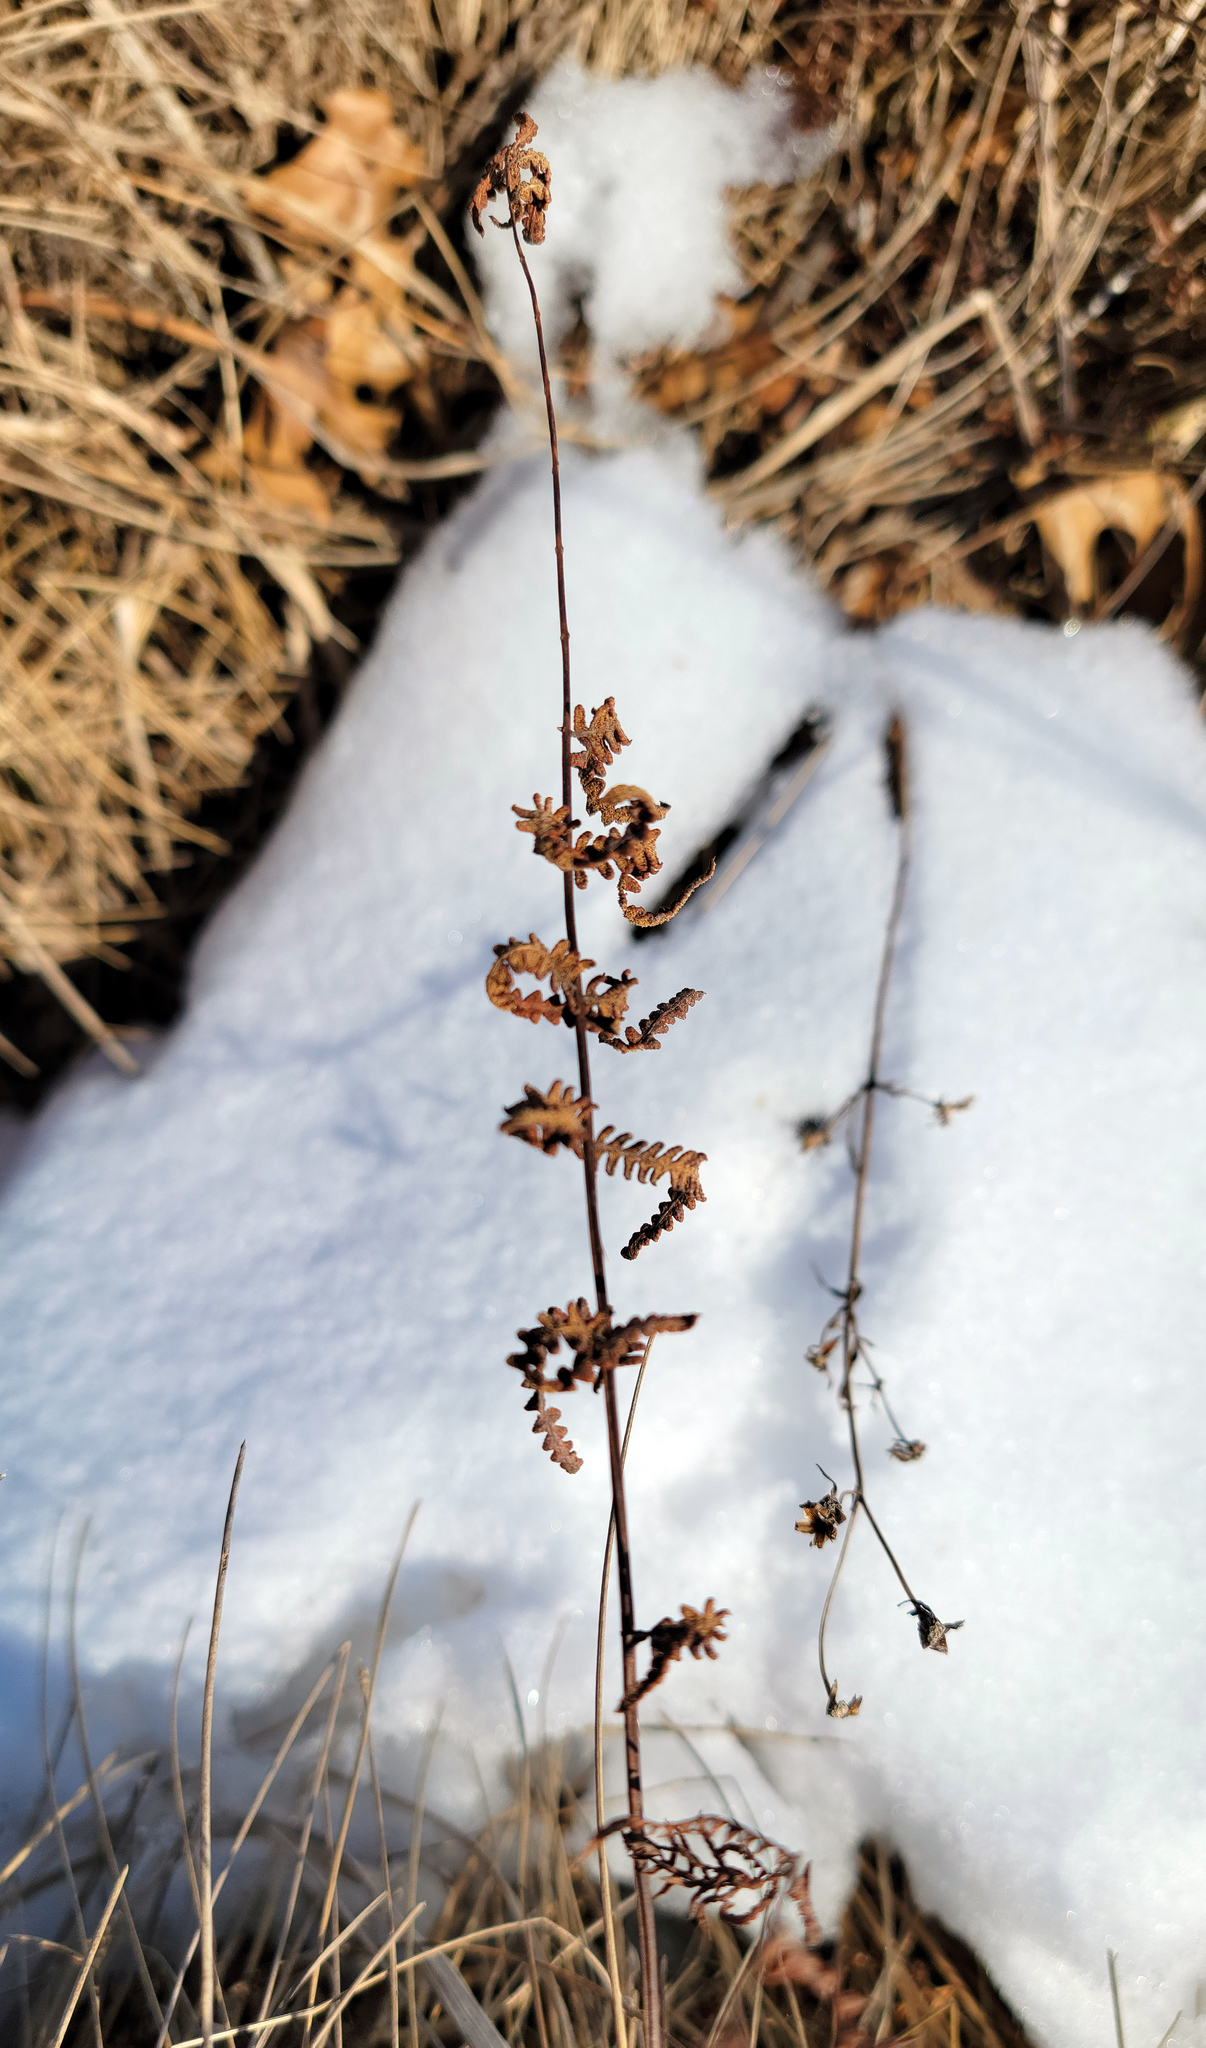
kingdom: Plantae
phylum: Tracheophyta
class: Polypodiopsida
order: Polypodiales
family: Thelypteridaceae
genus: Thelypteris
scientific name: Thelypteris palustris
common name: Marsh fern
